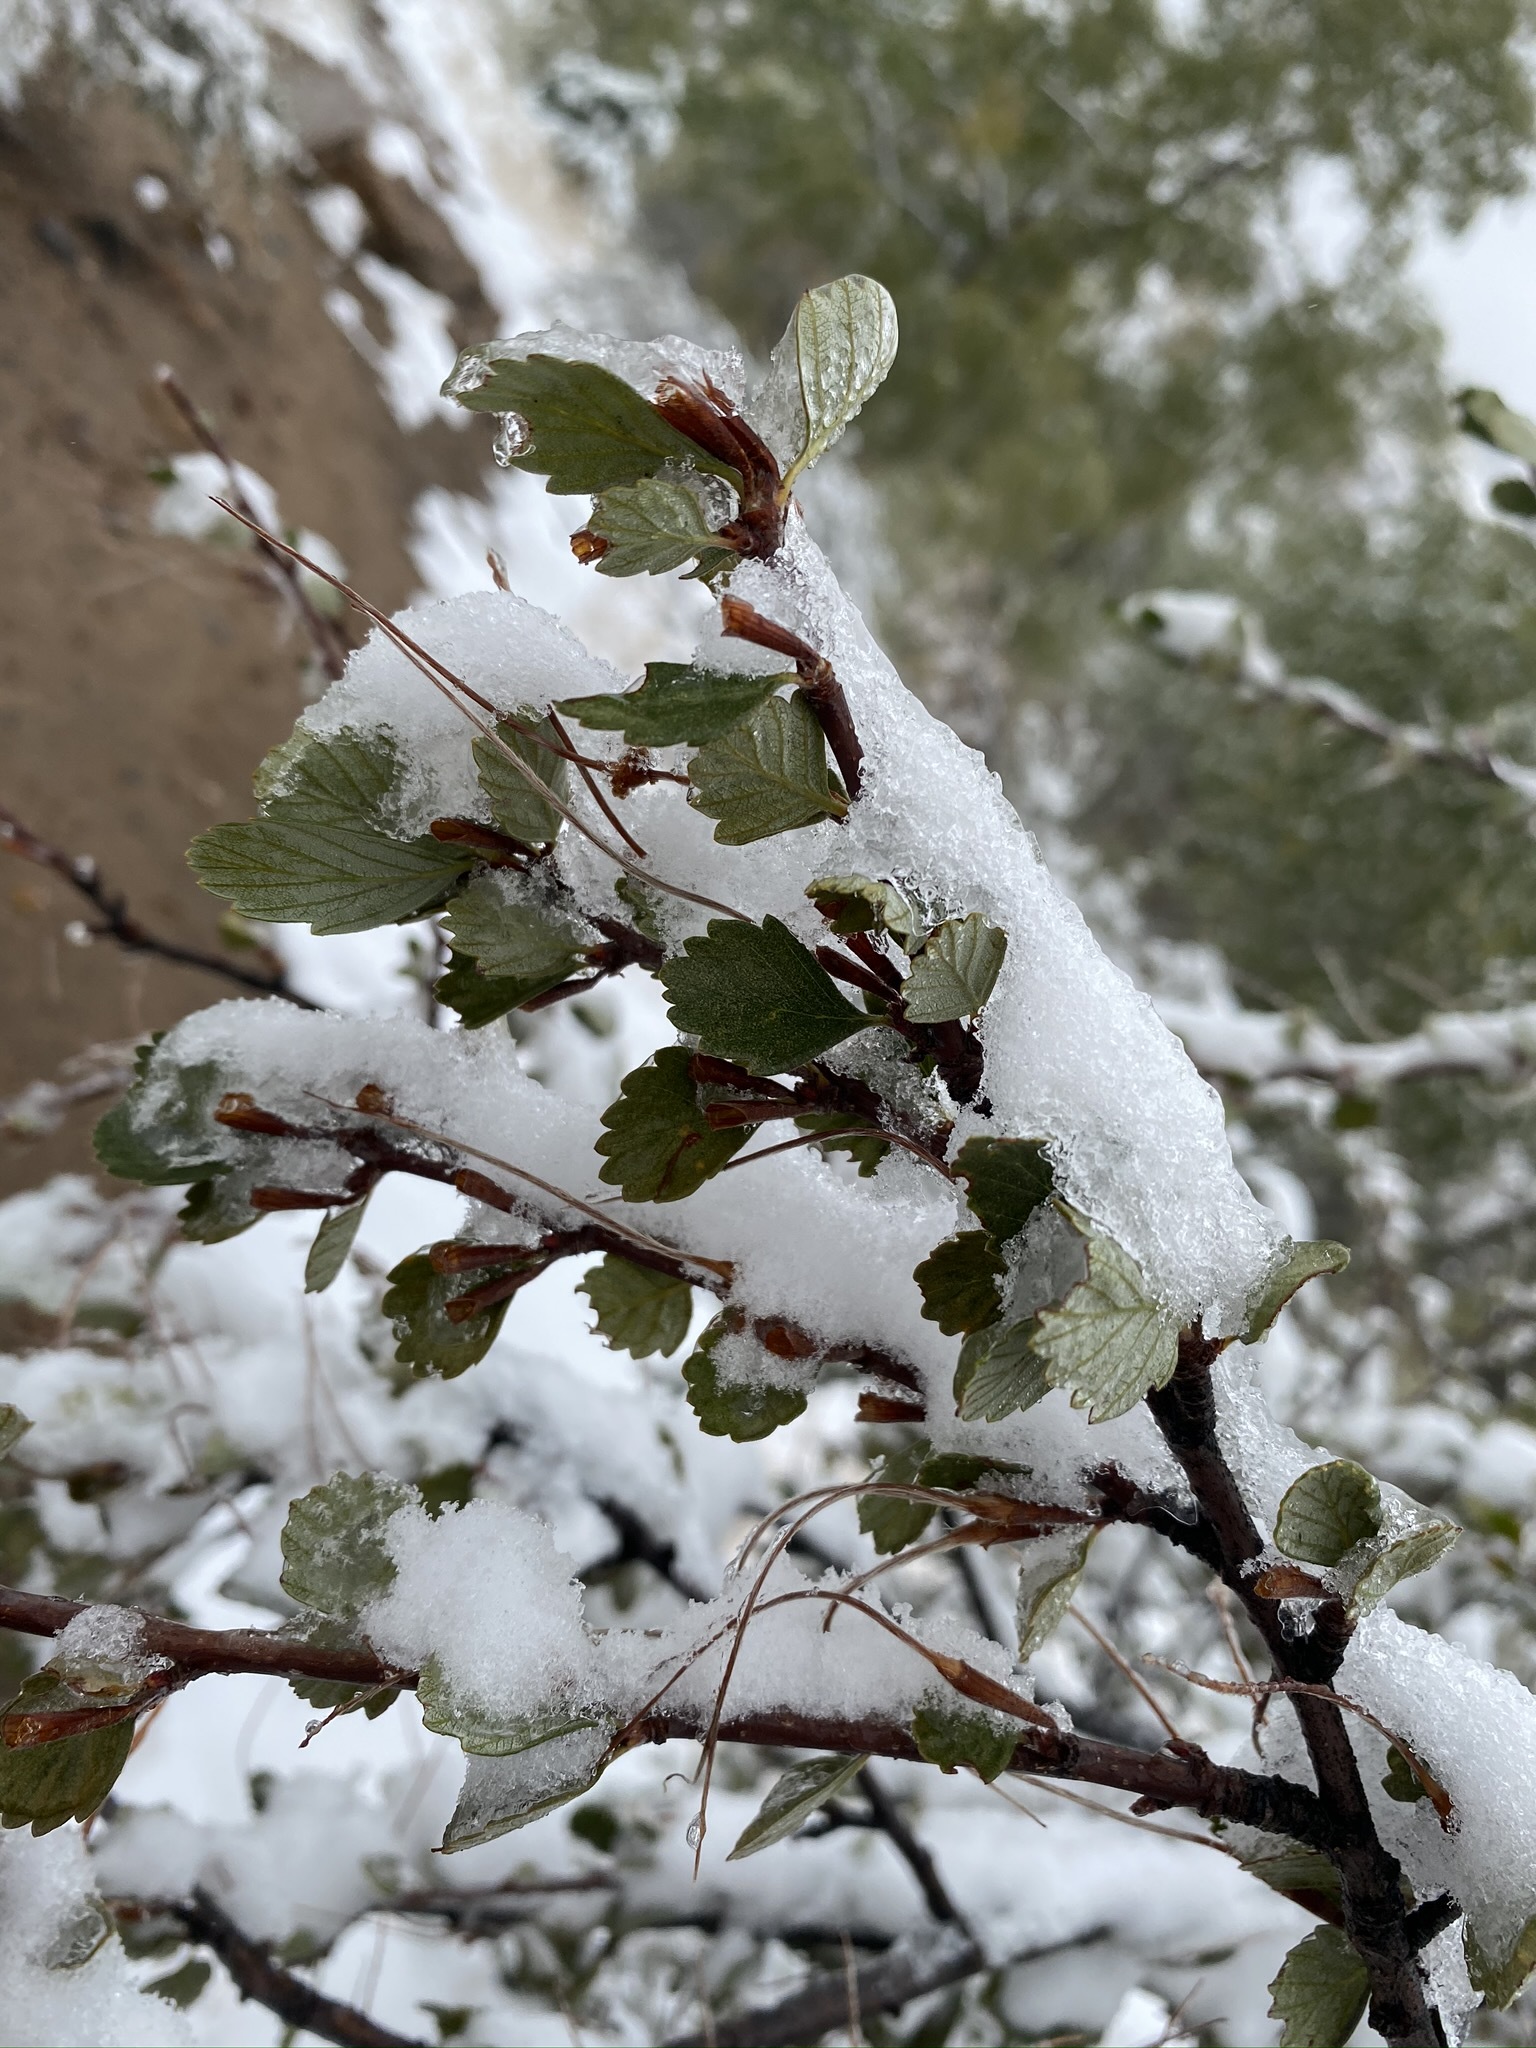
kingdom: Plantae
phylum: Tracheophyta
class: Magnoliopsida
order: Rosales
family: Rosaceae
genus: Cercocarpus
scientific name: Cercocarpus montanus
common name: Alder-leaf cercocarpus
